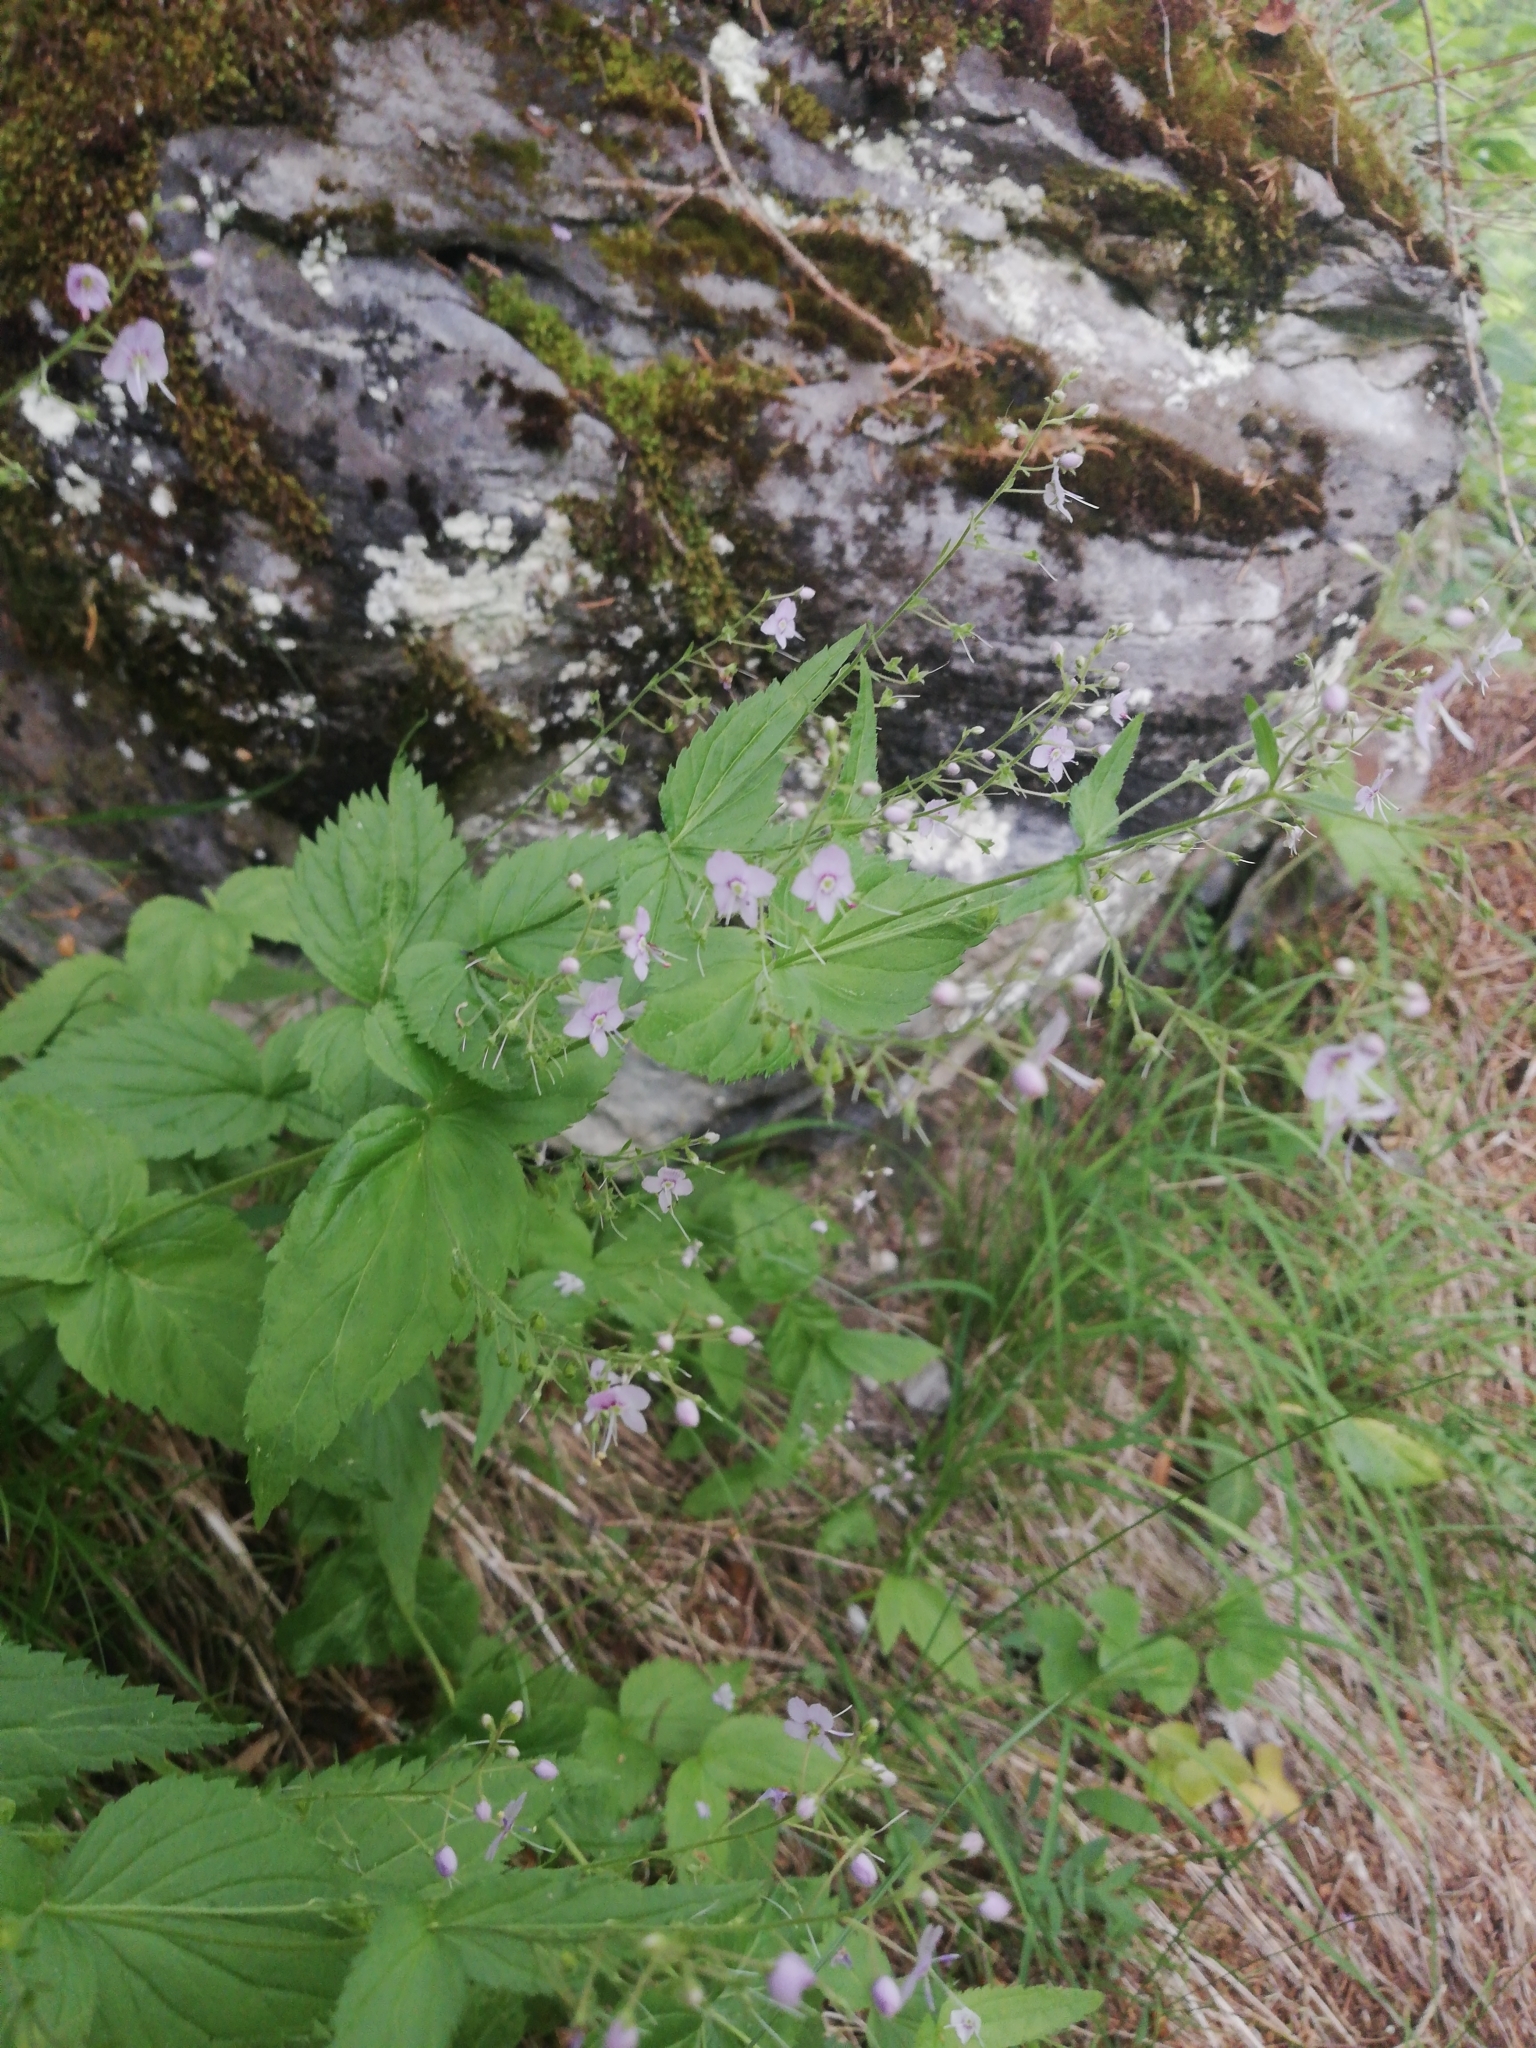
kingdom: Plantae
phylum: Tracheophyta
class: Magnoliopsida
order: Lamiales
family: Plantaginaceae
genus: Veronica
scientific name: Veronica urticifolia
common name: Nettle-leaf speedwell
